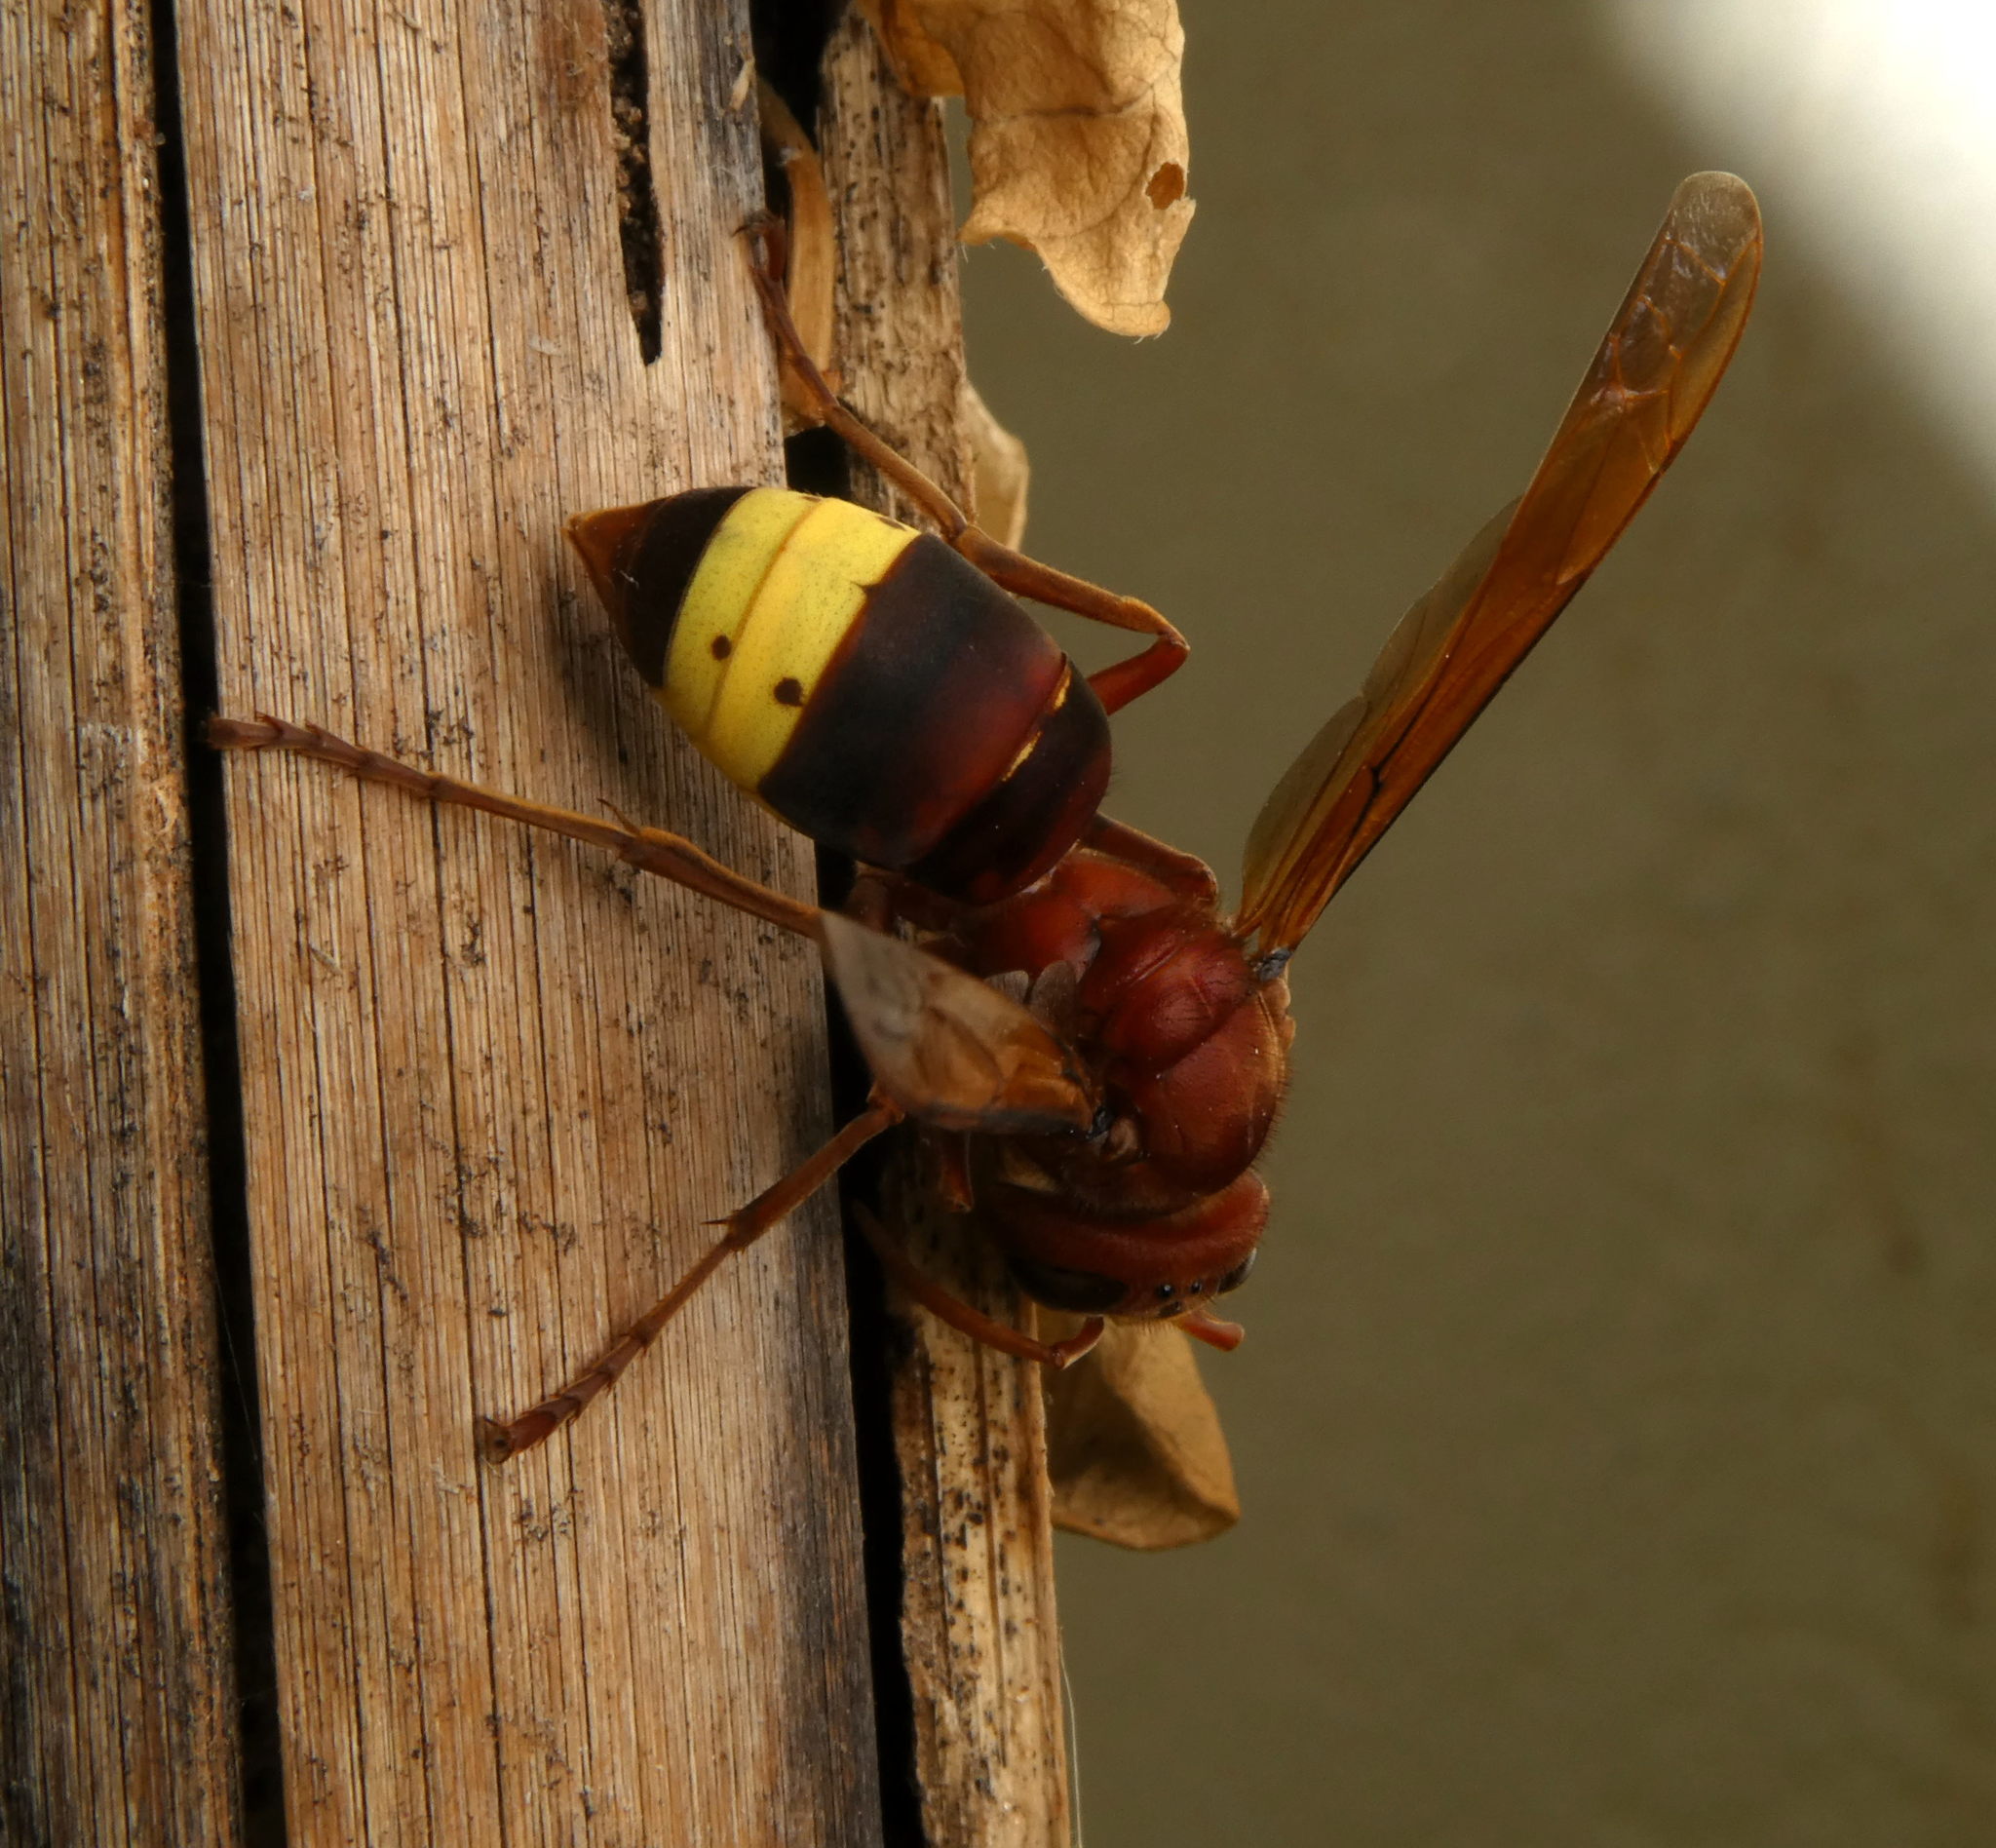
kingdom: Animalia
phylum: Arthropoda
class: Insecta
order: Hymenoptera
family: Vespidae
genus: Vespa
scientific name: Vespa orientalis
